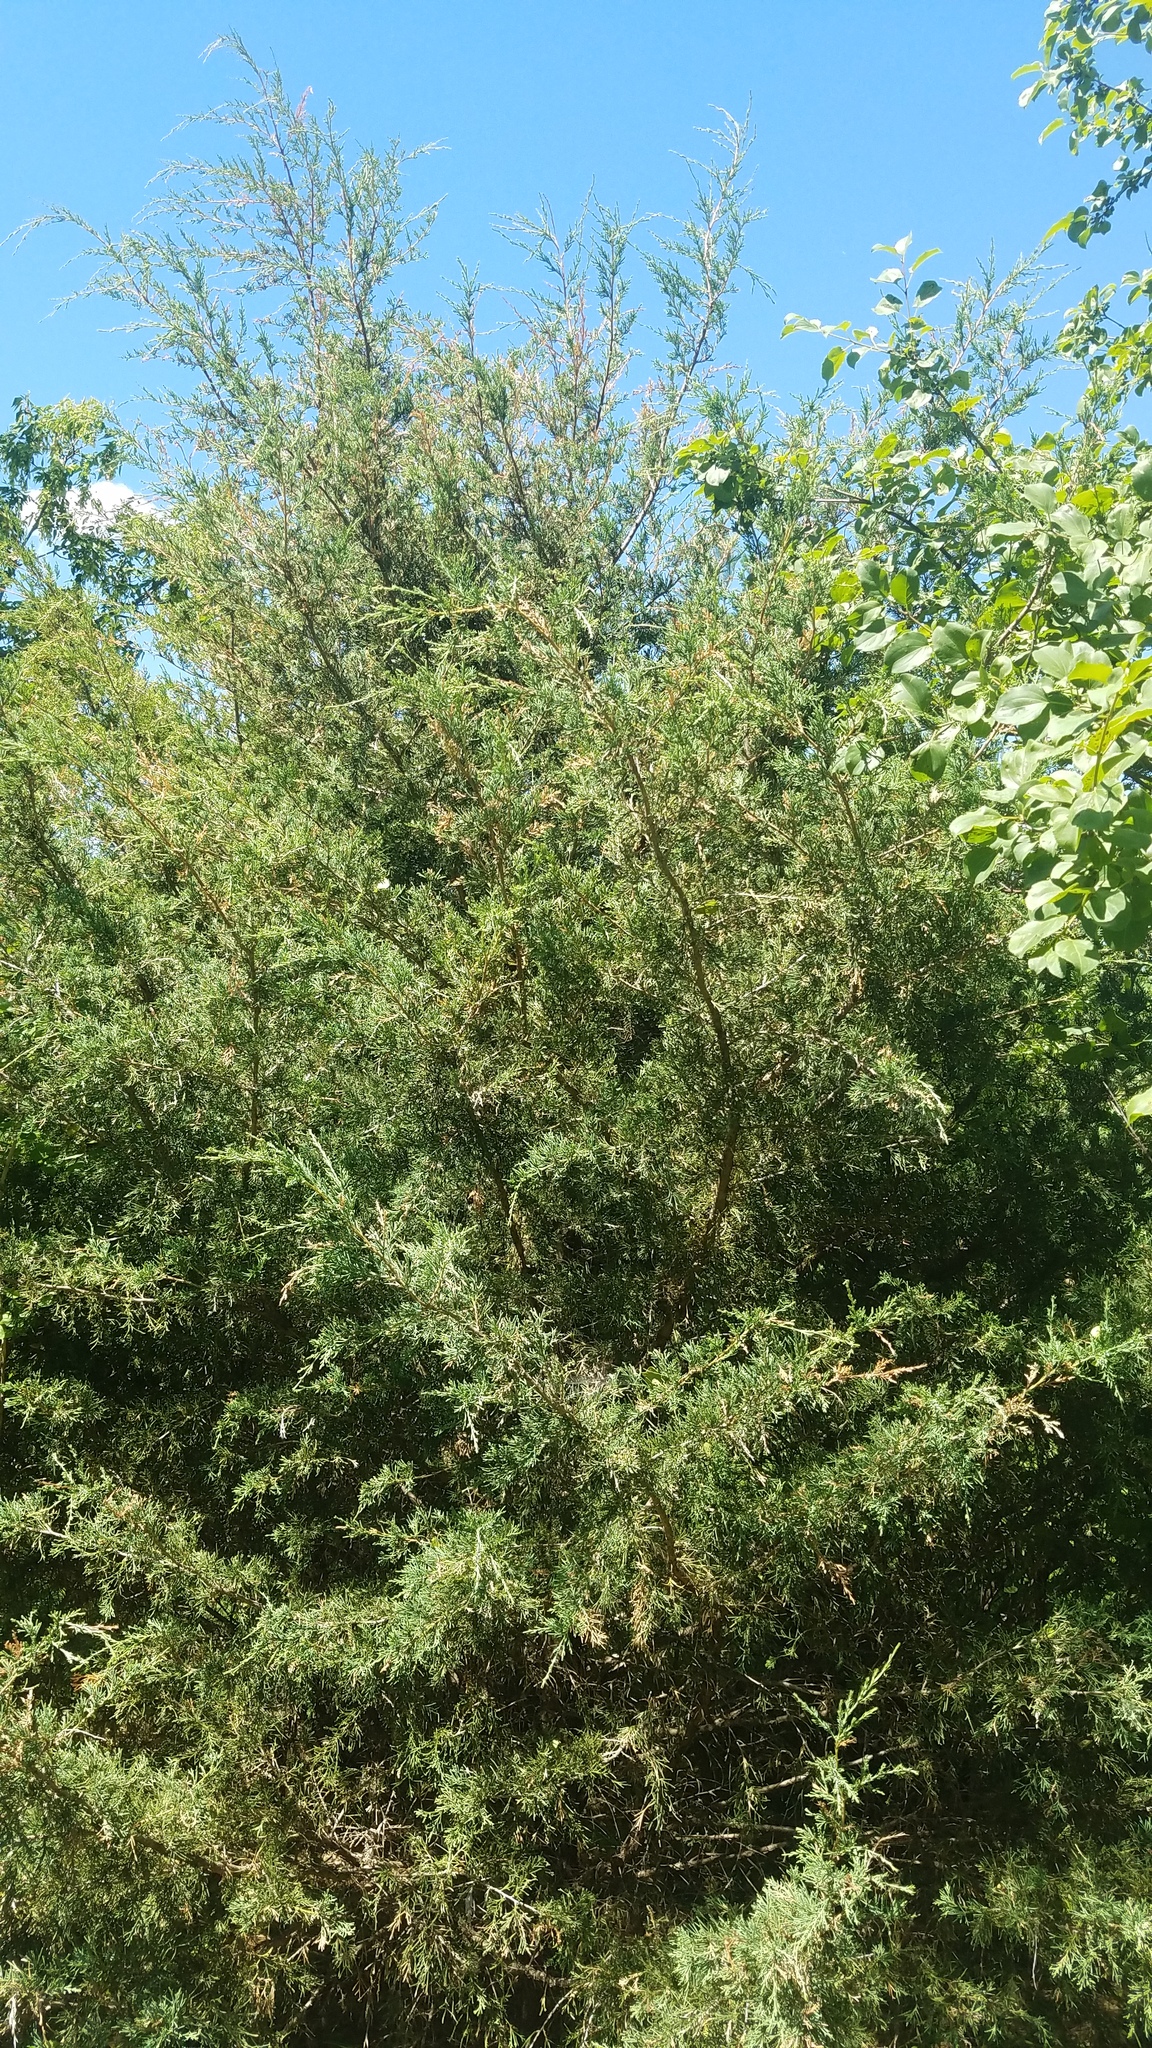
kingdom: Plantae
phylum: Tracheophyta
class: Pinopsida
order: Pinales
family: Cupressaceae
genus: Juniperus
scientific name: Juniperus virginiana
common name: Red juniper
